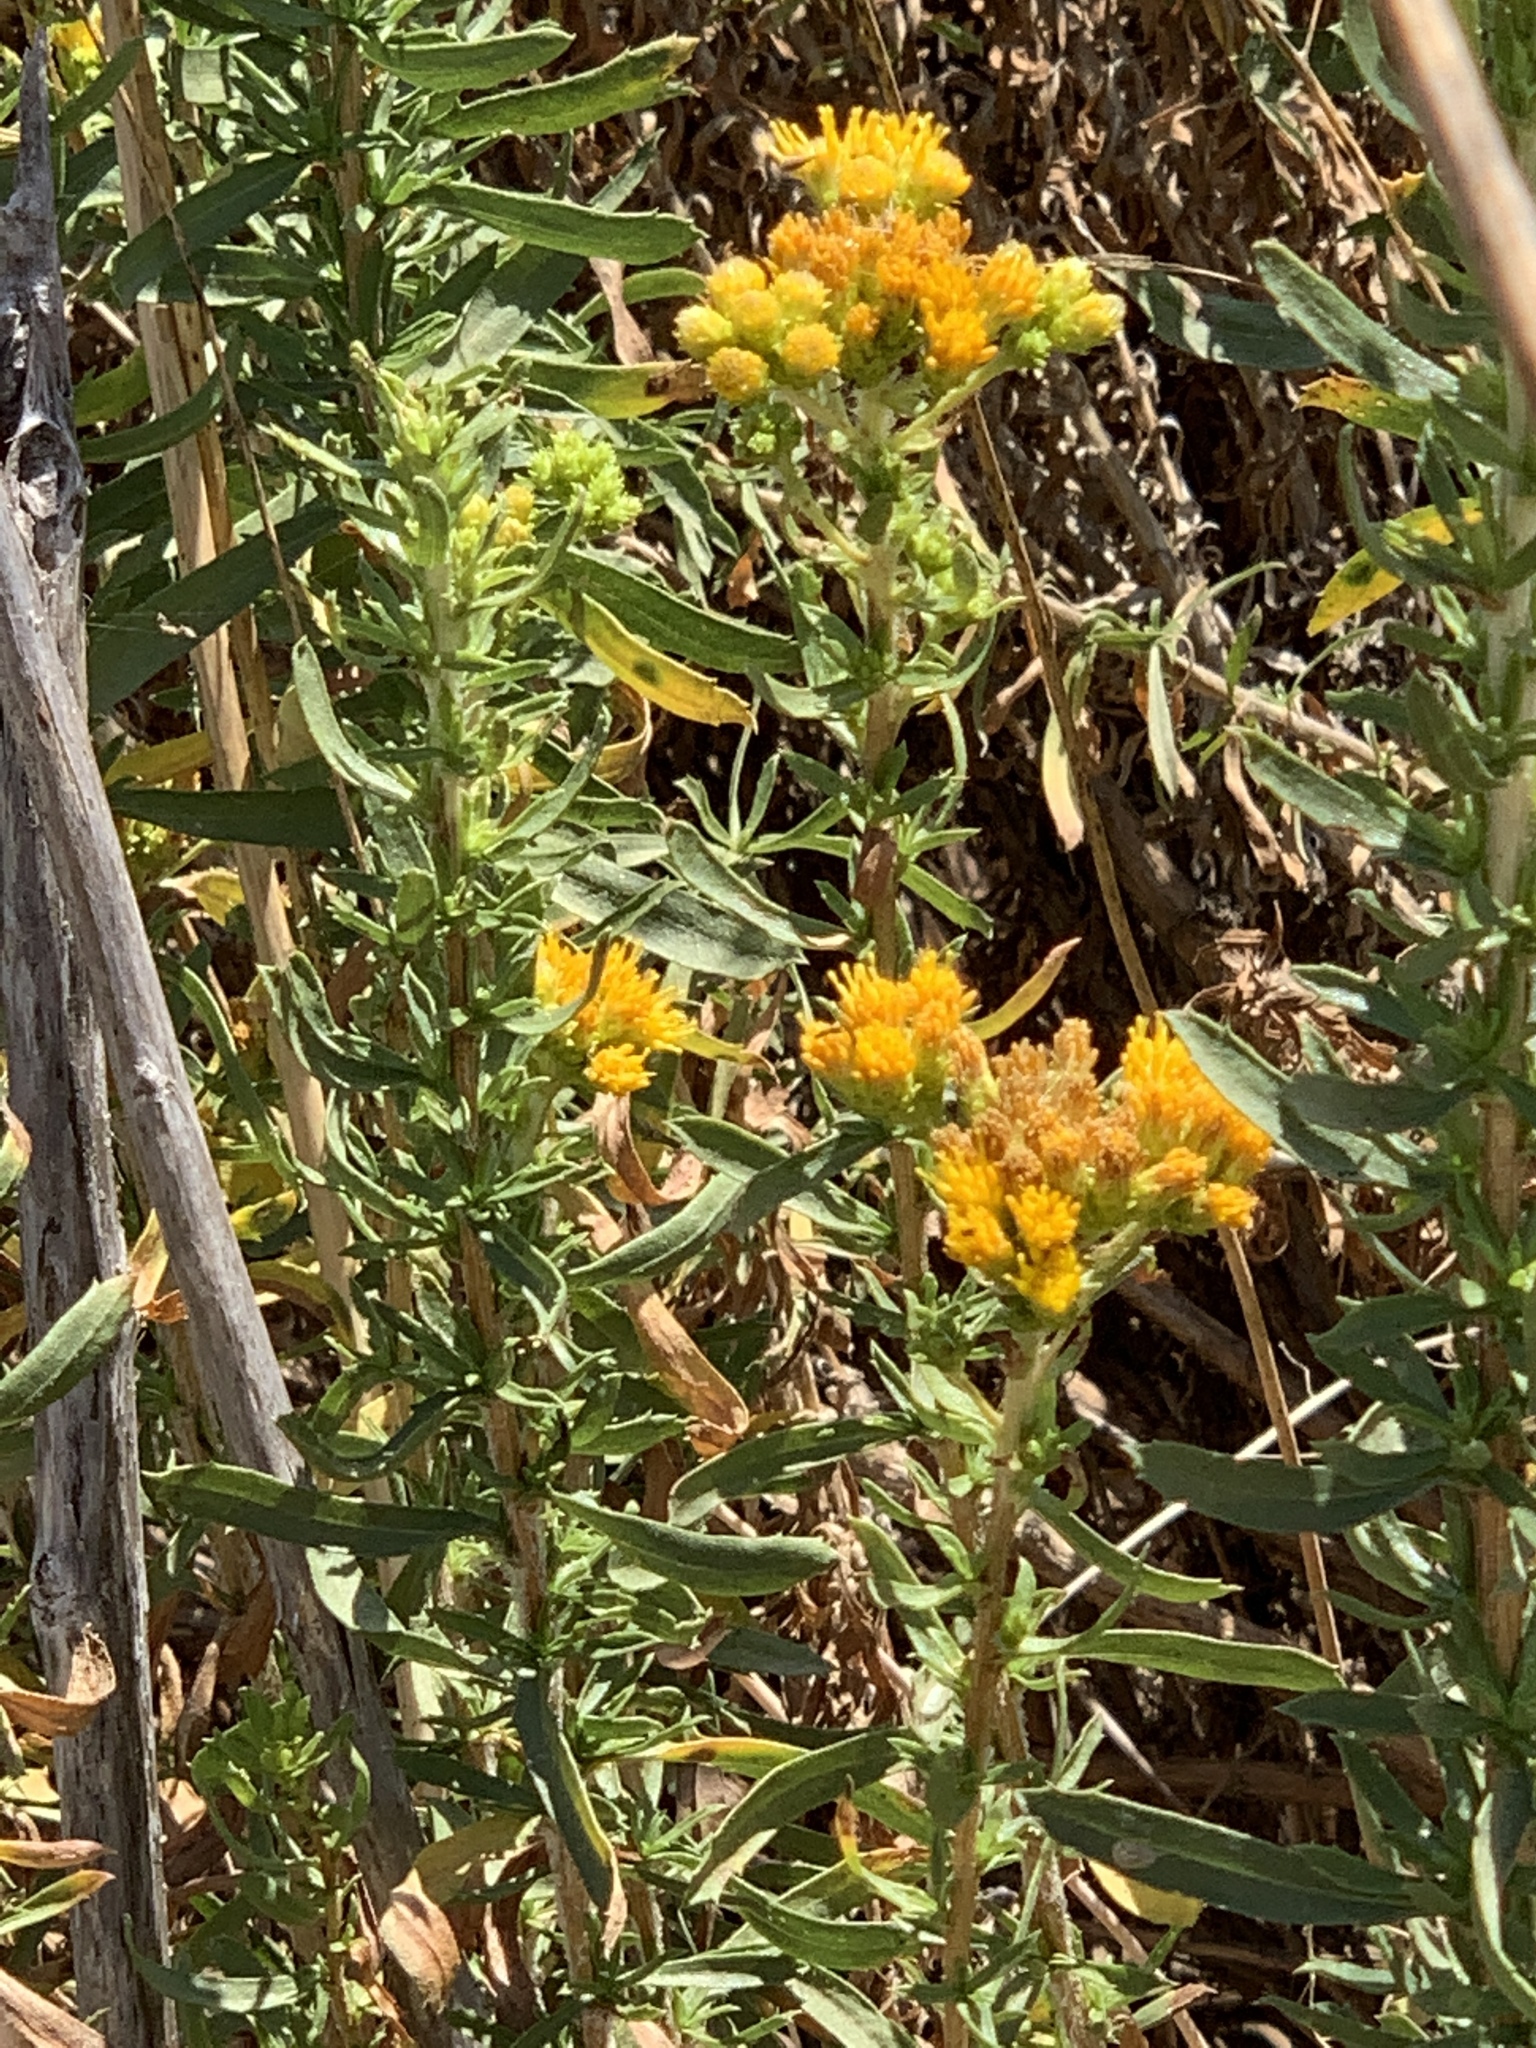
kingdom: Plantae
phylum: Tracheophyta
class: Magnoliopsida
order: Asterales
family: Asteraceae
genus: Isocoma
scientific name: Isocoma menziesii
